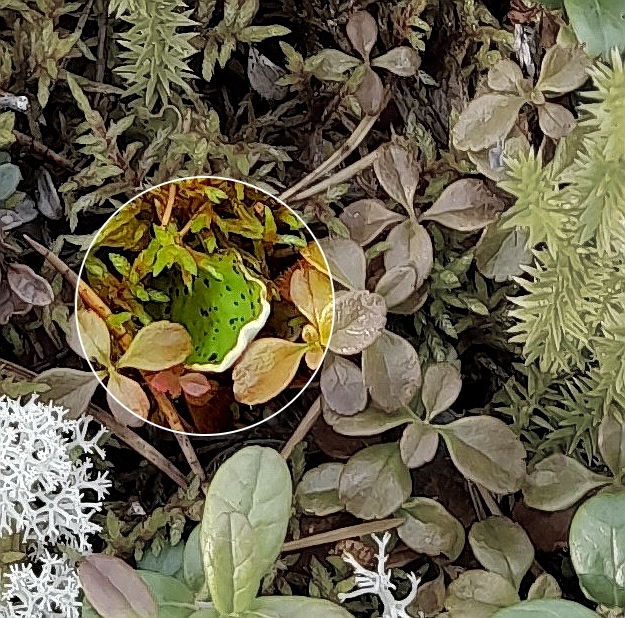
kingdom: Fungi
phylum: Ascomycota
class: Lecanoromycetes
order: Peltigerales
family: Peltigeraceae
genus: Peltigera
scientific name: Peltigera aphthosa
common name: Common freckle pelt lichen
